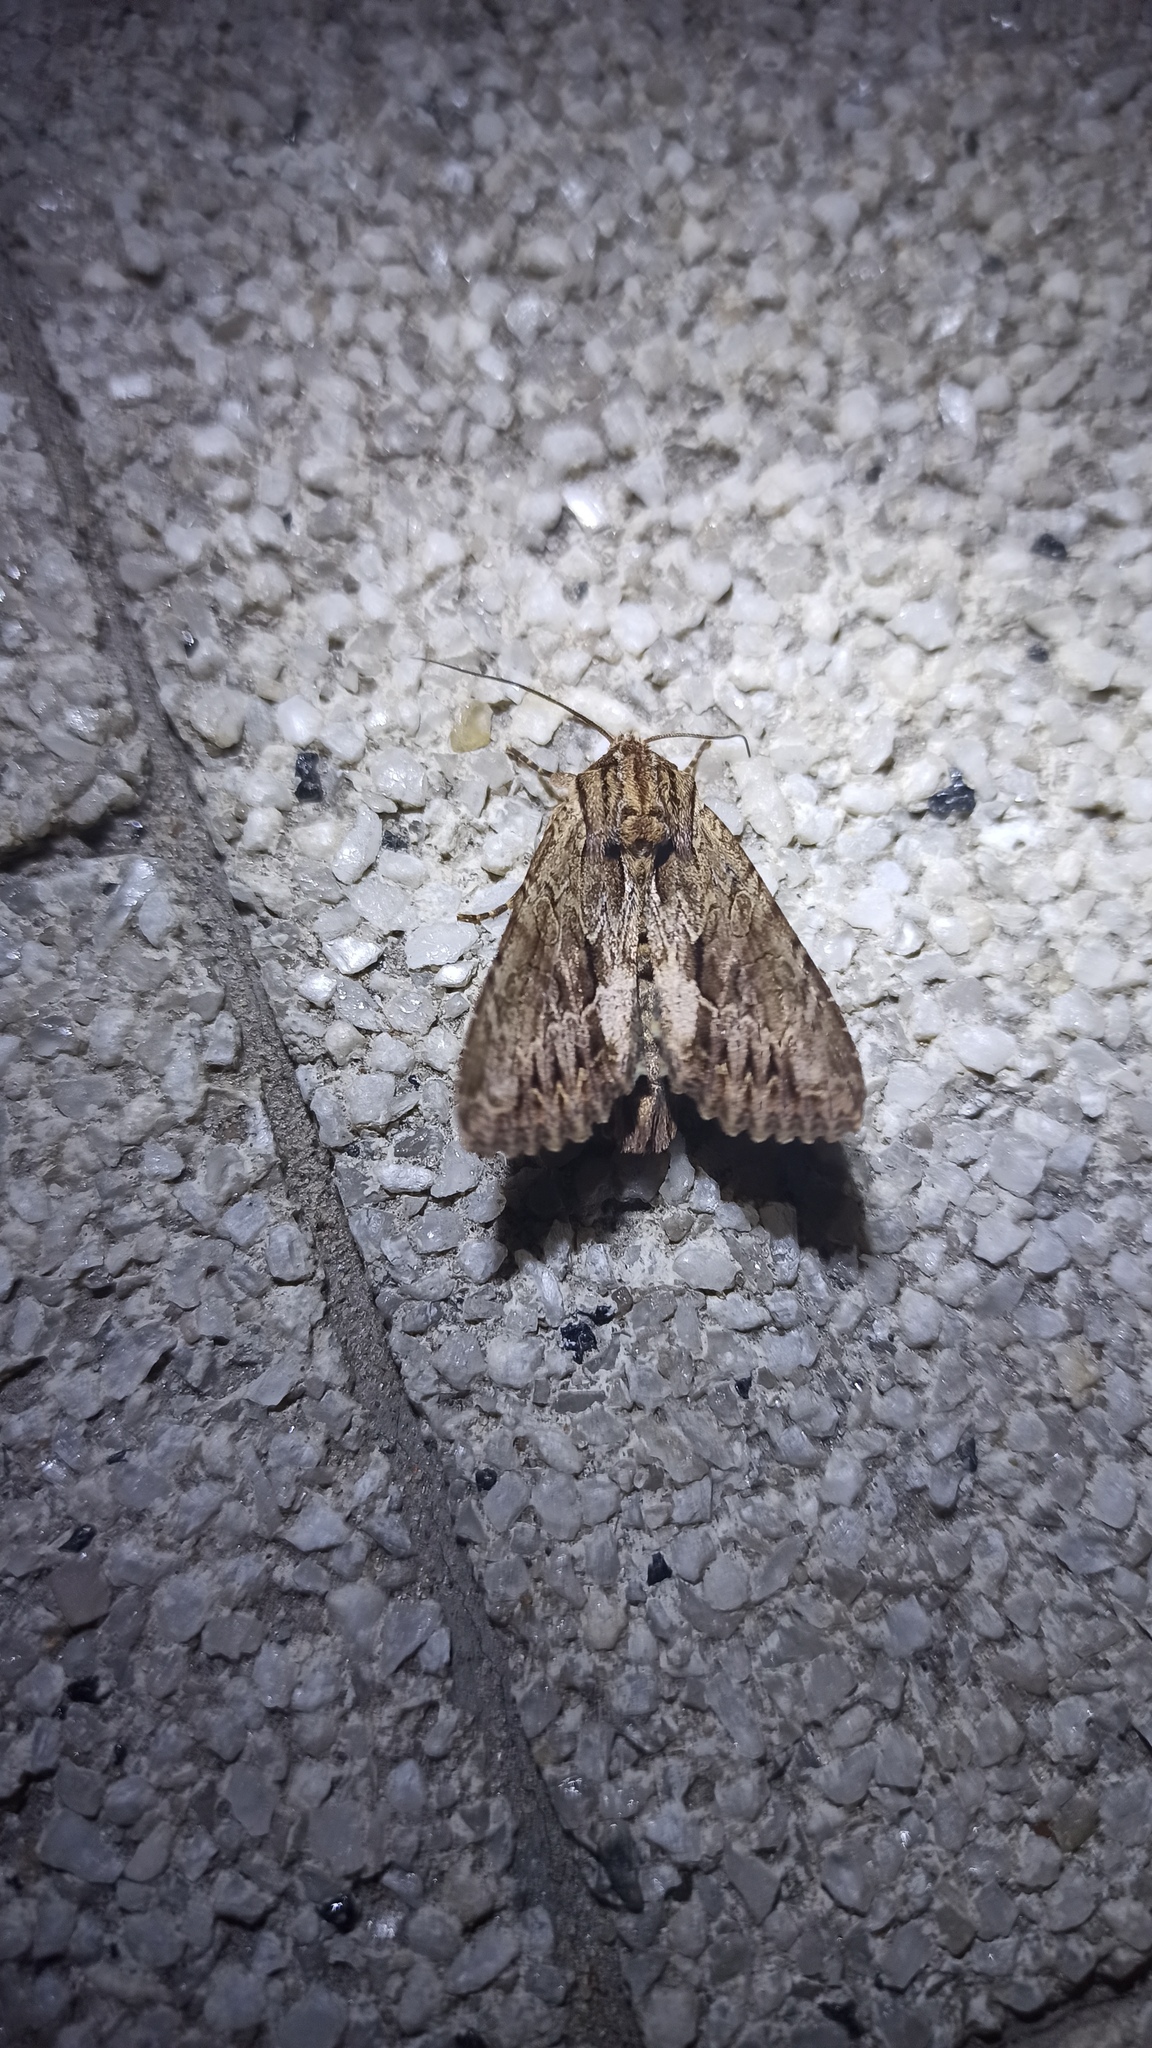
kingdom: Animalia
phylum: Arthropoda
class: Insecta
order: Lepidoptera
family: Noctuidae
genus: Apamea
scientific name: Apamea monoglypha
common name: Dark arches
